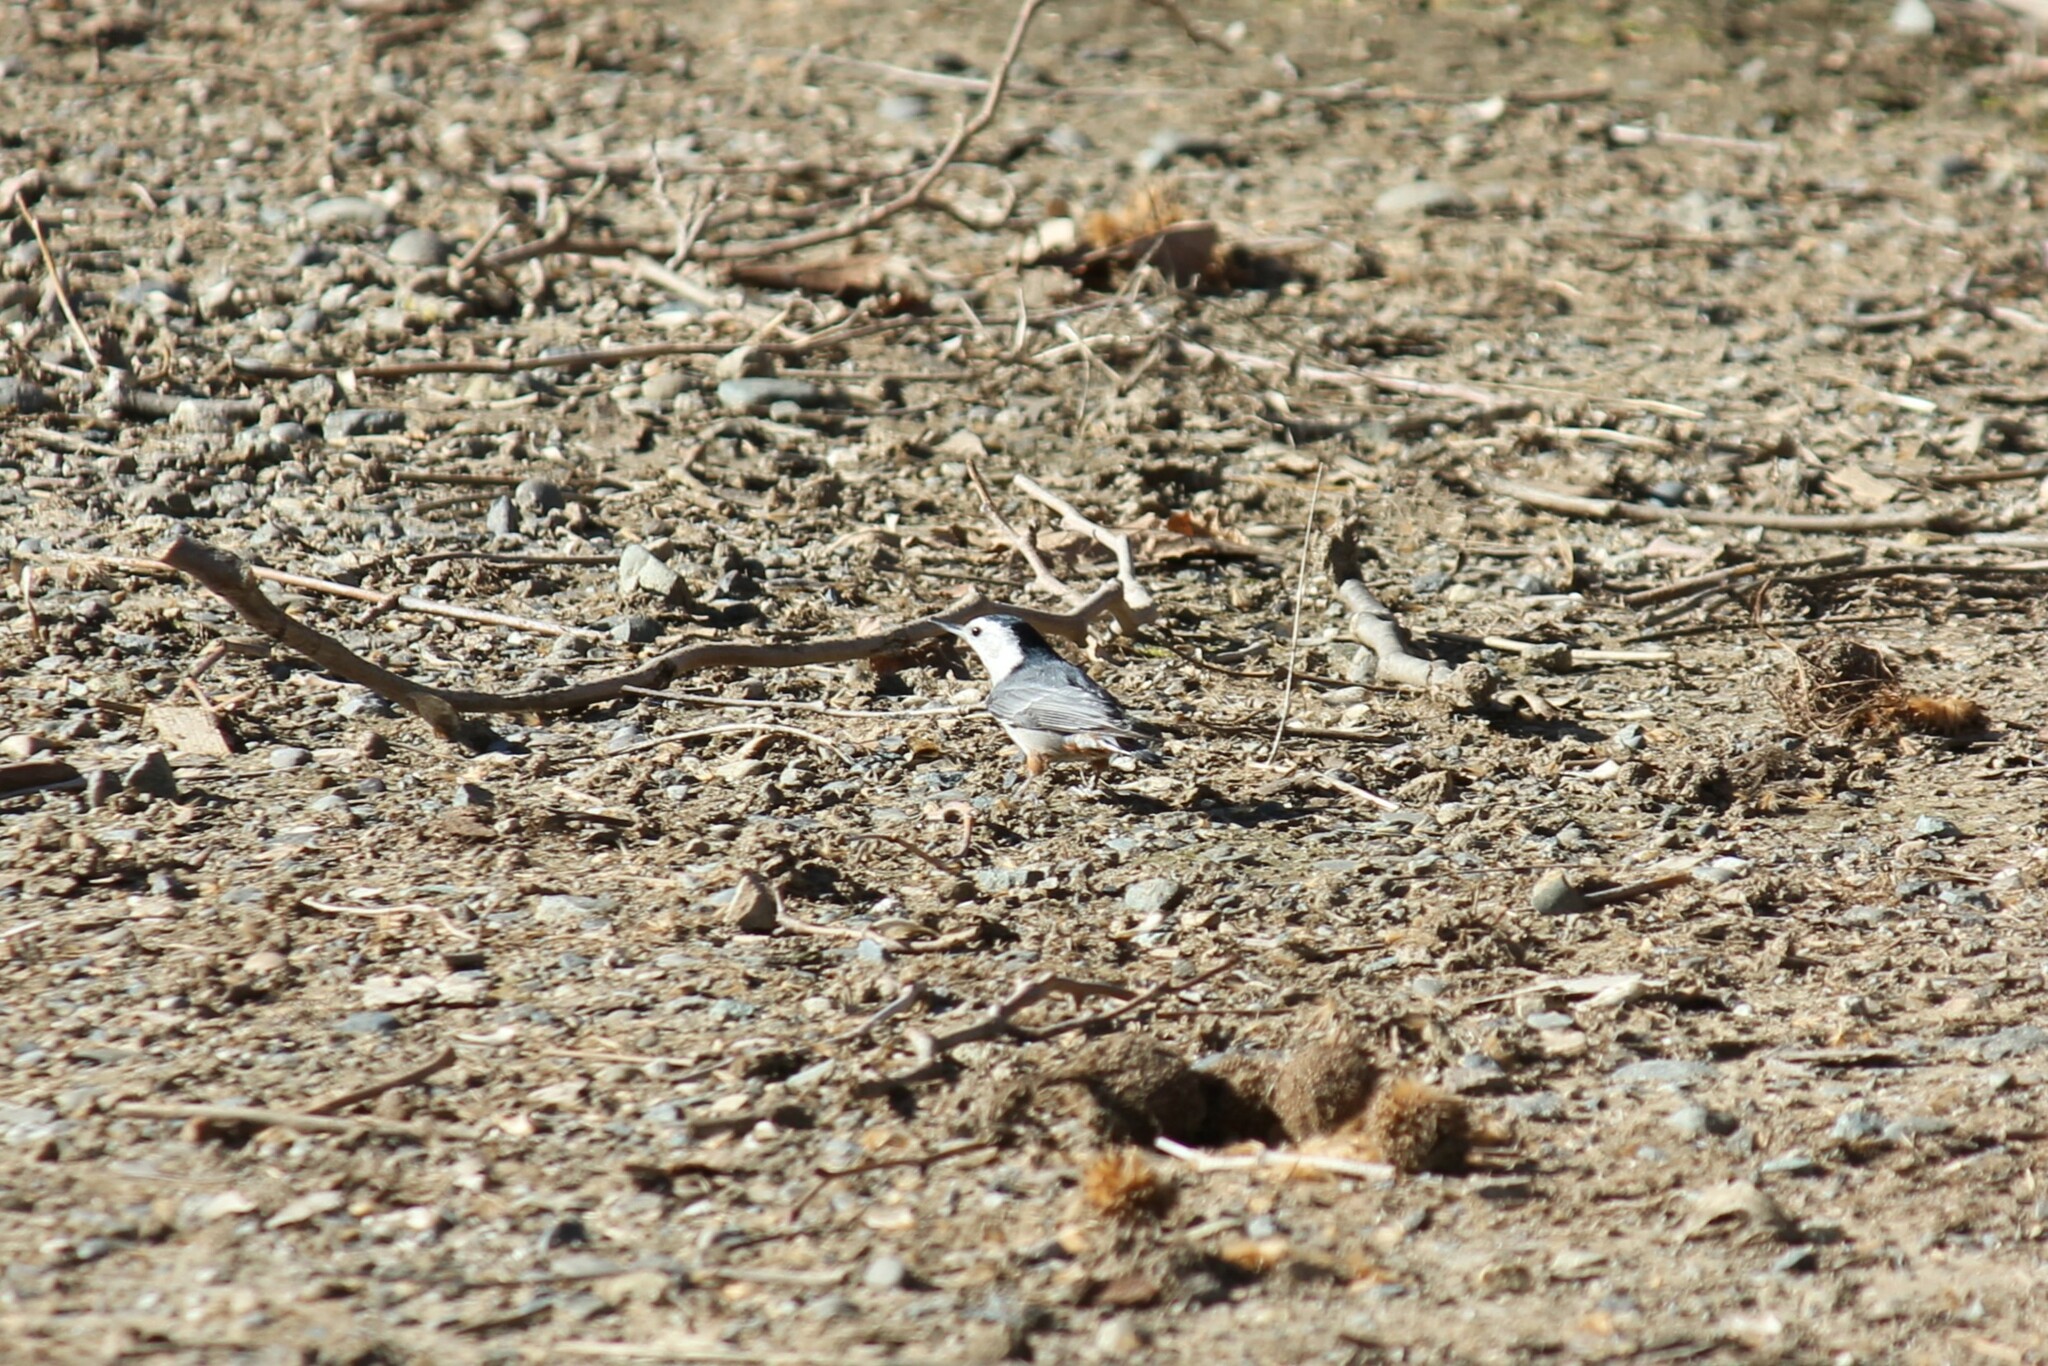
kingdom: Animalia
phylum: Chordata
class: Aves
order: Passeriformes
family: Sittidae
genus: Sitta
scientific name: Sitta carolinensis
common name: White-breasted nuthatch
